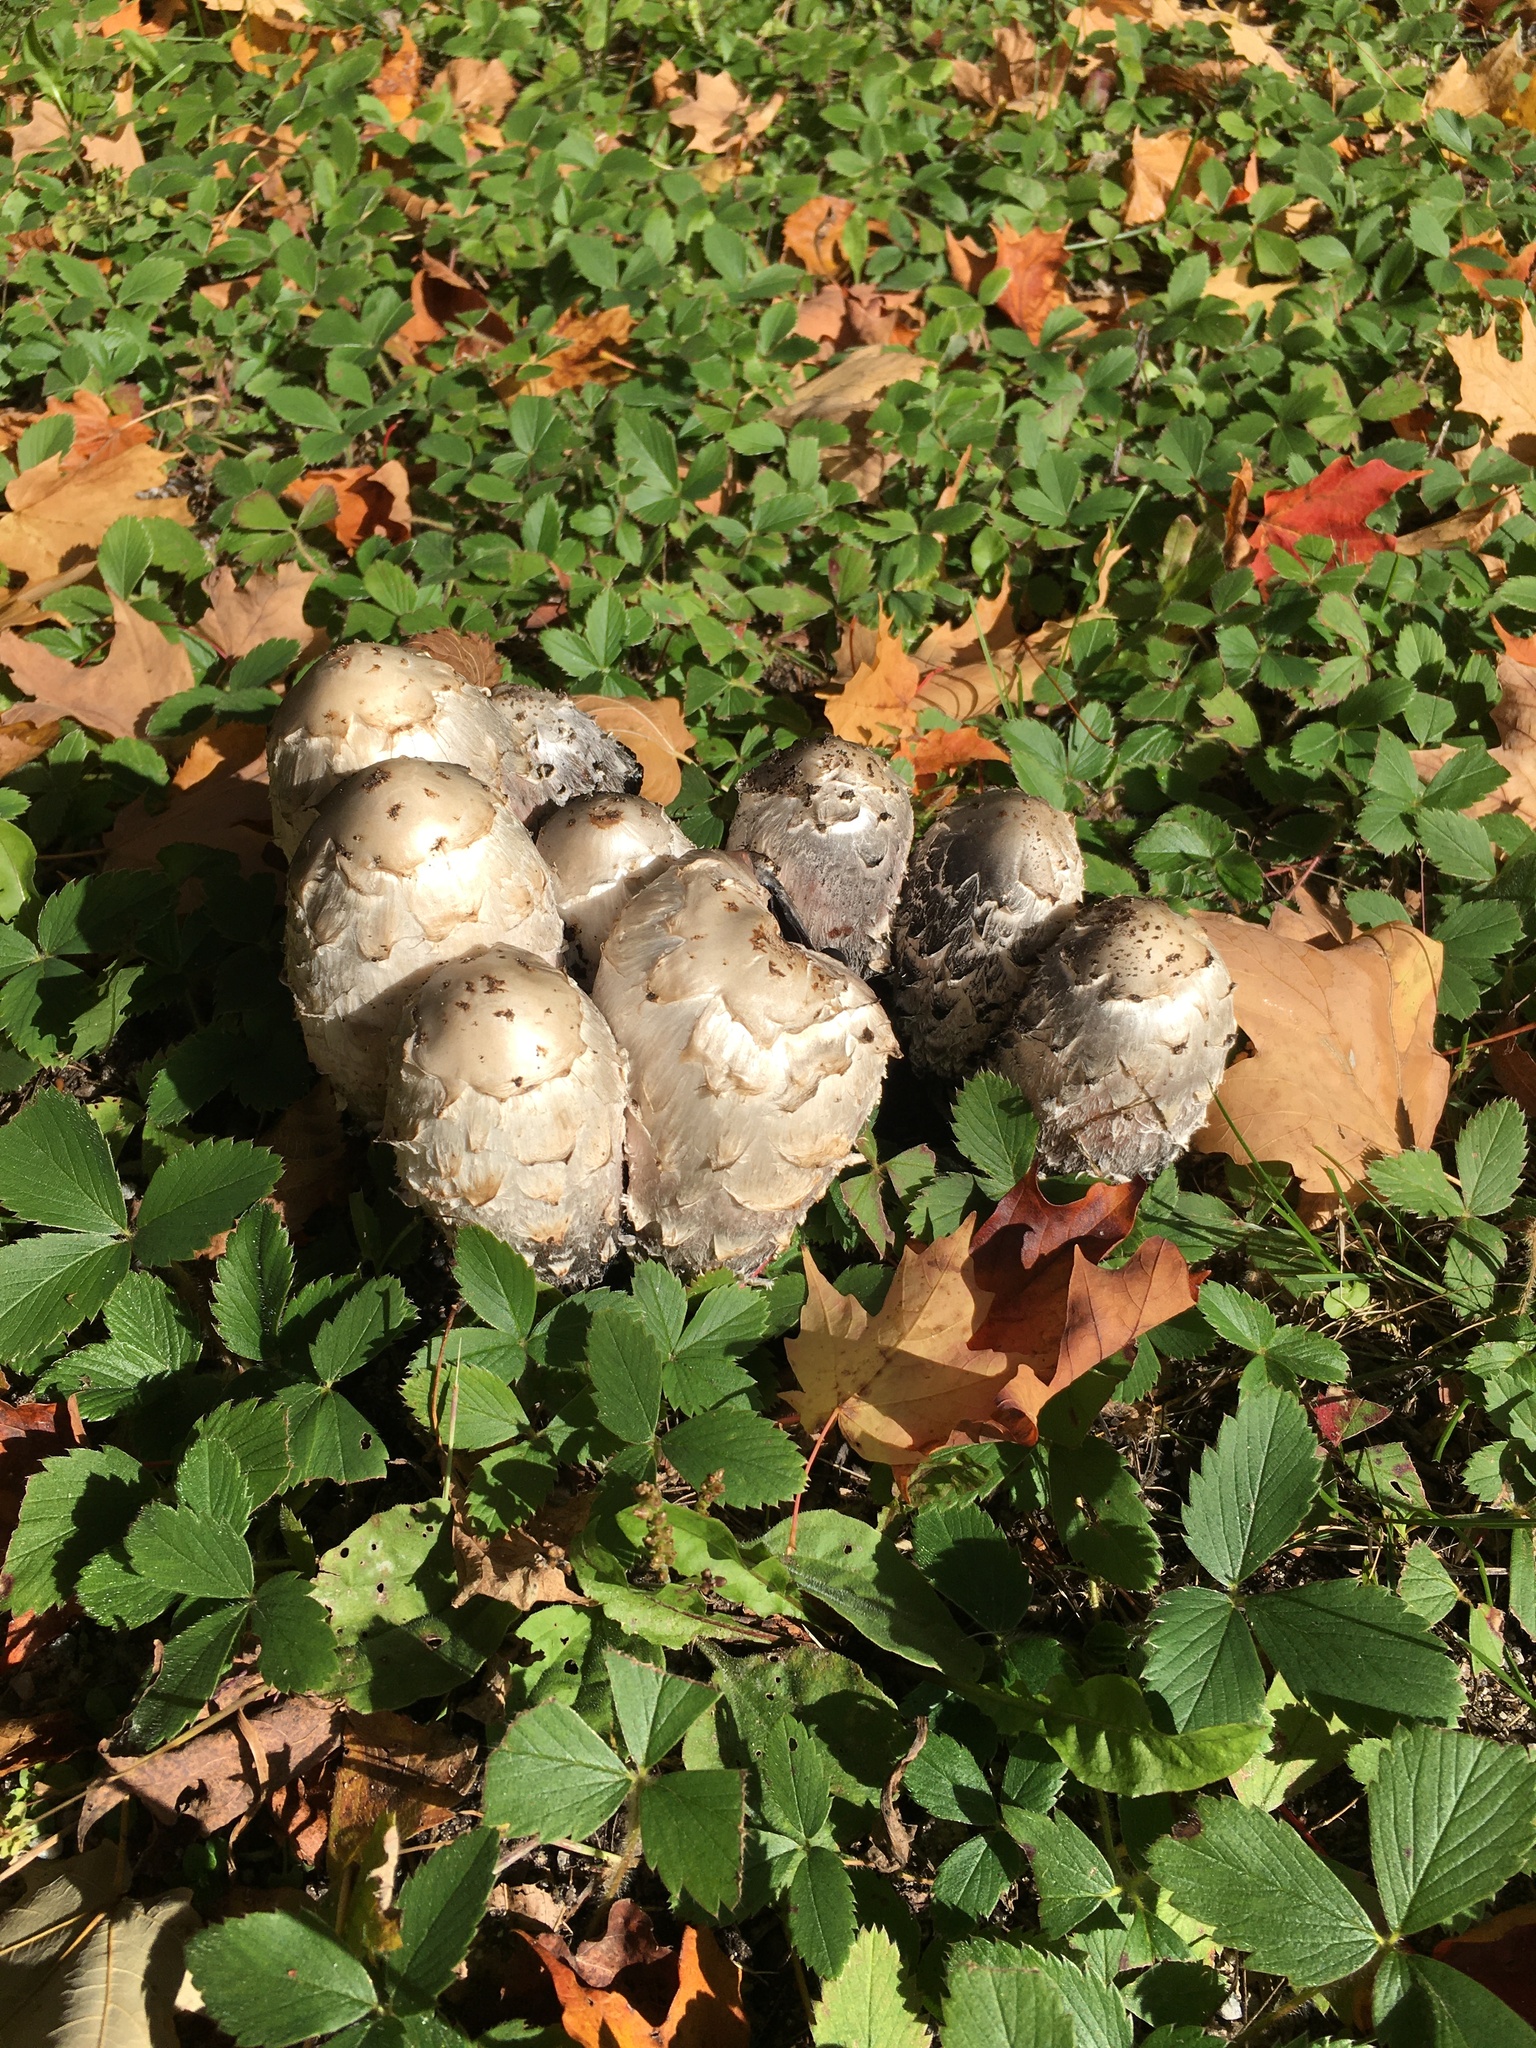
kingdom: Fungi
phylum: Basidiomycota
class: Agaricomycetes
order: Agaricales
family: Agaricaceae
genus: Coprinus
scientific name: Coprinus comatus
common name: Lawyer's wig
